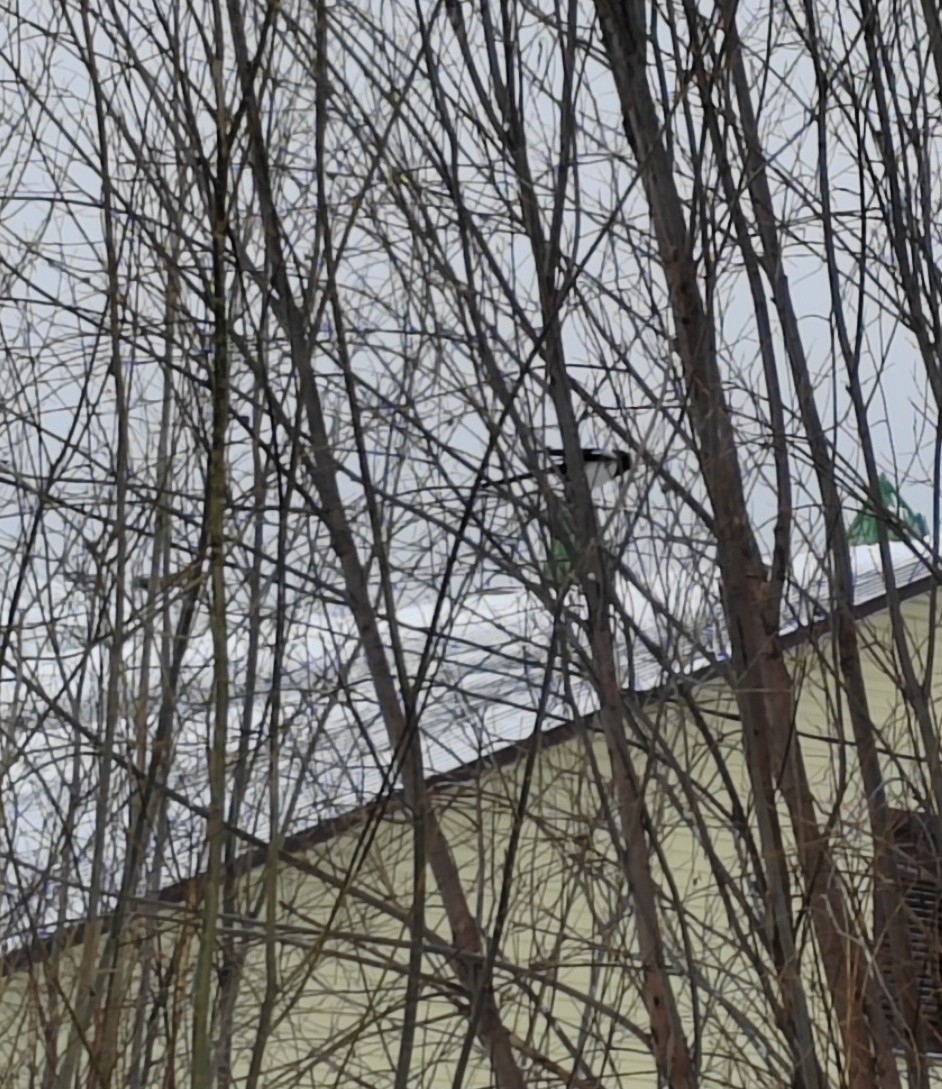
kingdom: Animalia
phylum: Chordata
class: Aves
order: Passeriformes
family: Corvidae
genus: Pica
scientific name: Pica pica
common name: Eurasian magpie
